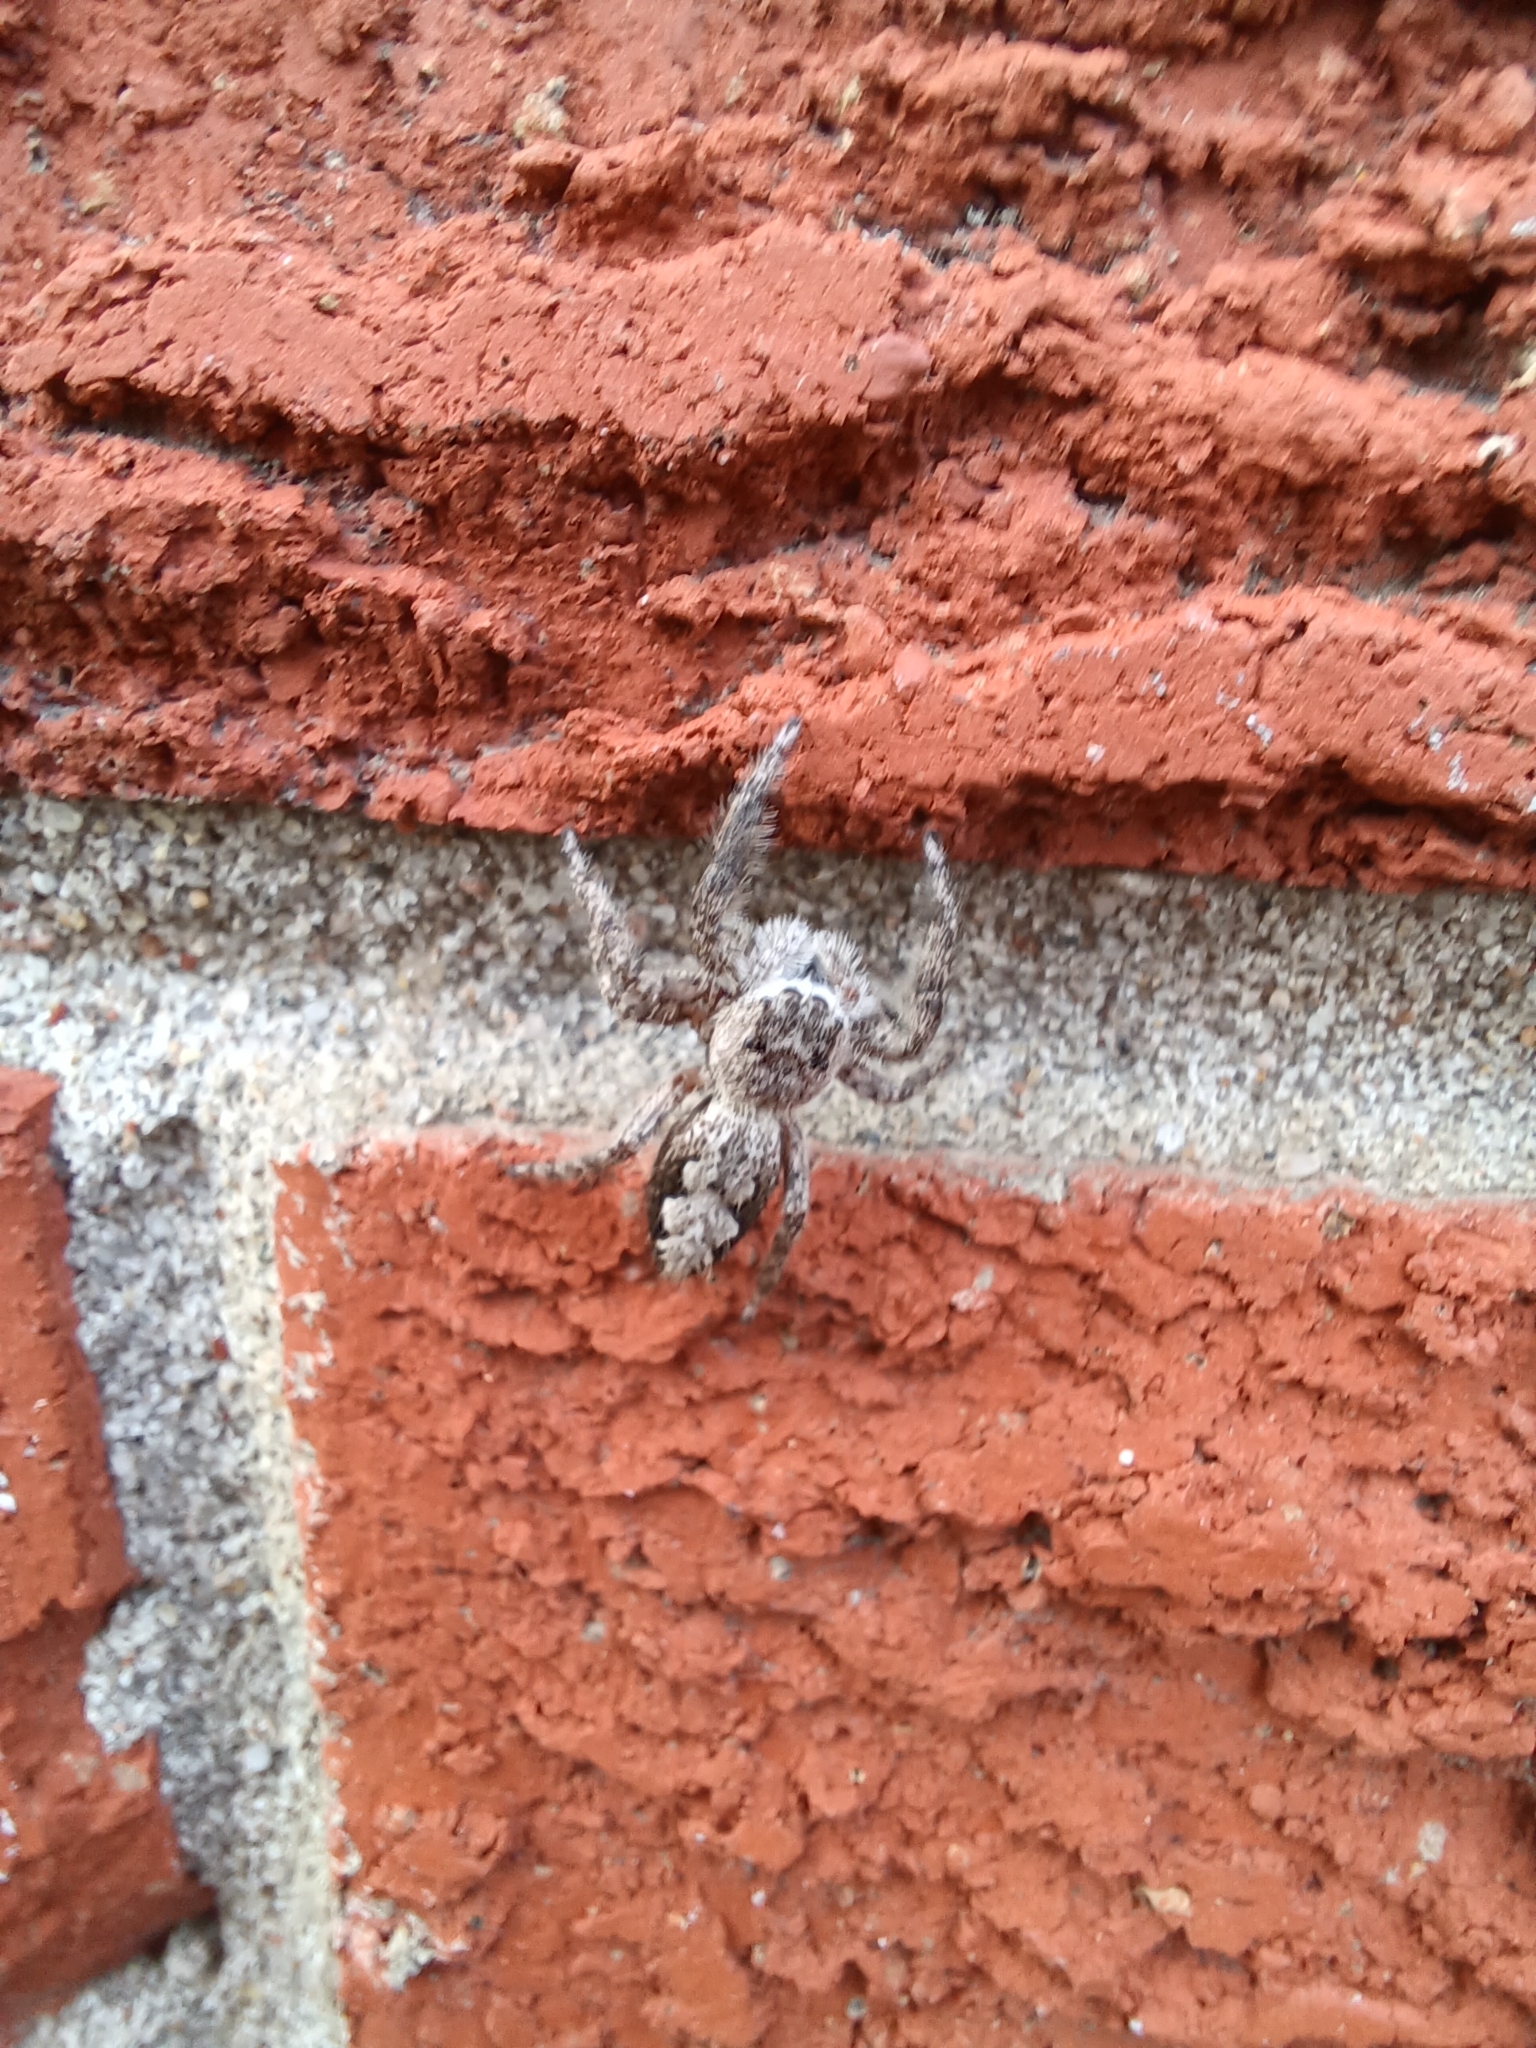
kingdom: Animalia
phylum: Arthropoda
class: Arachnida
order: Araneae
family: Salticidae
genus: Platycryptus
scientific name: Platycryptus undatus
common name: Tan jumping spider
